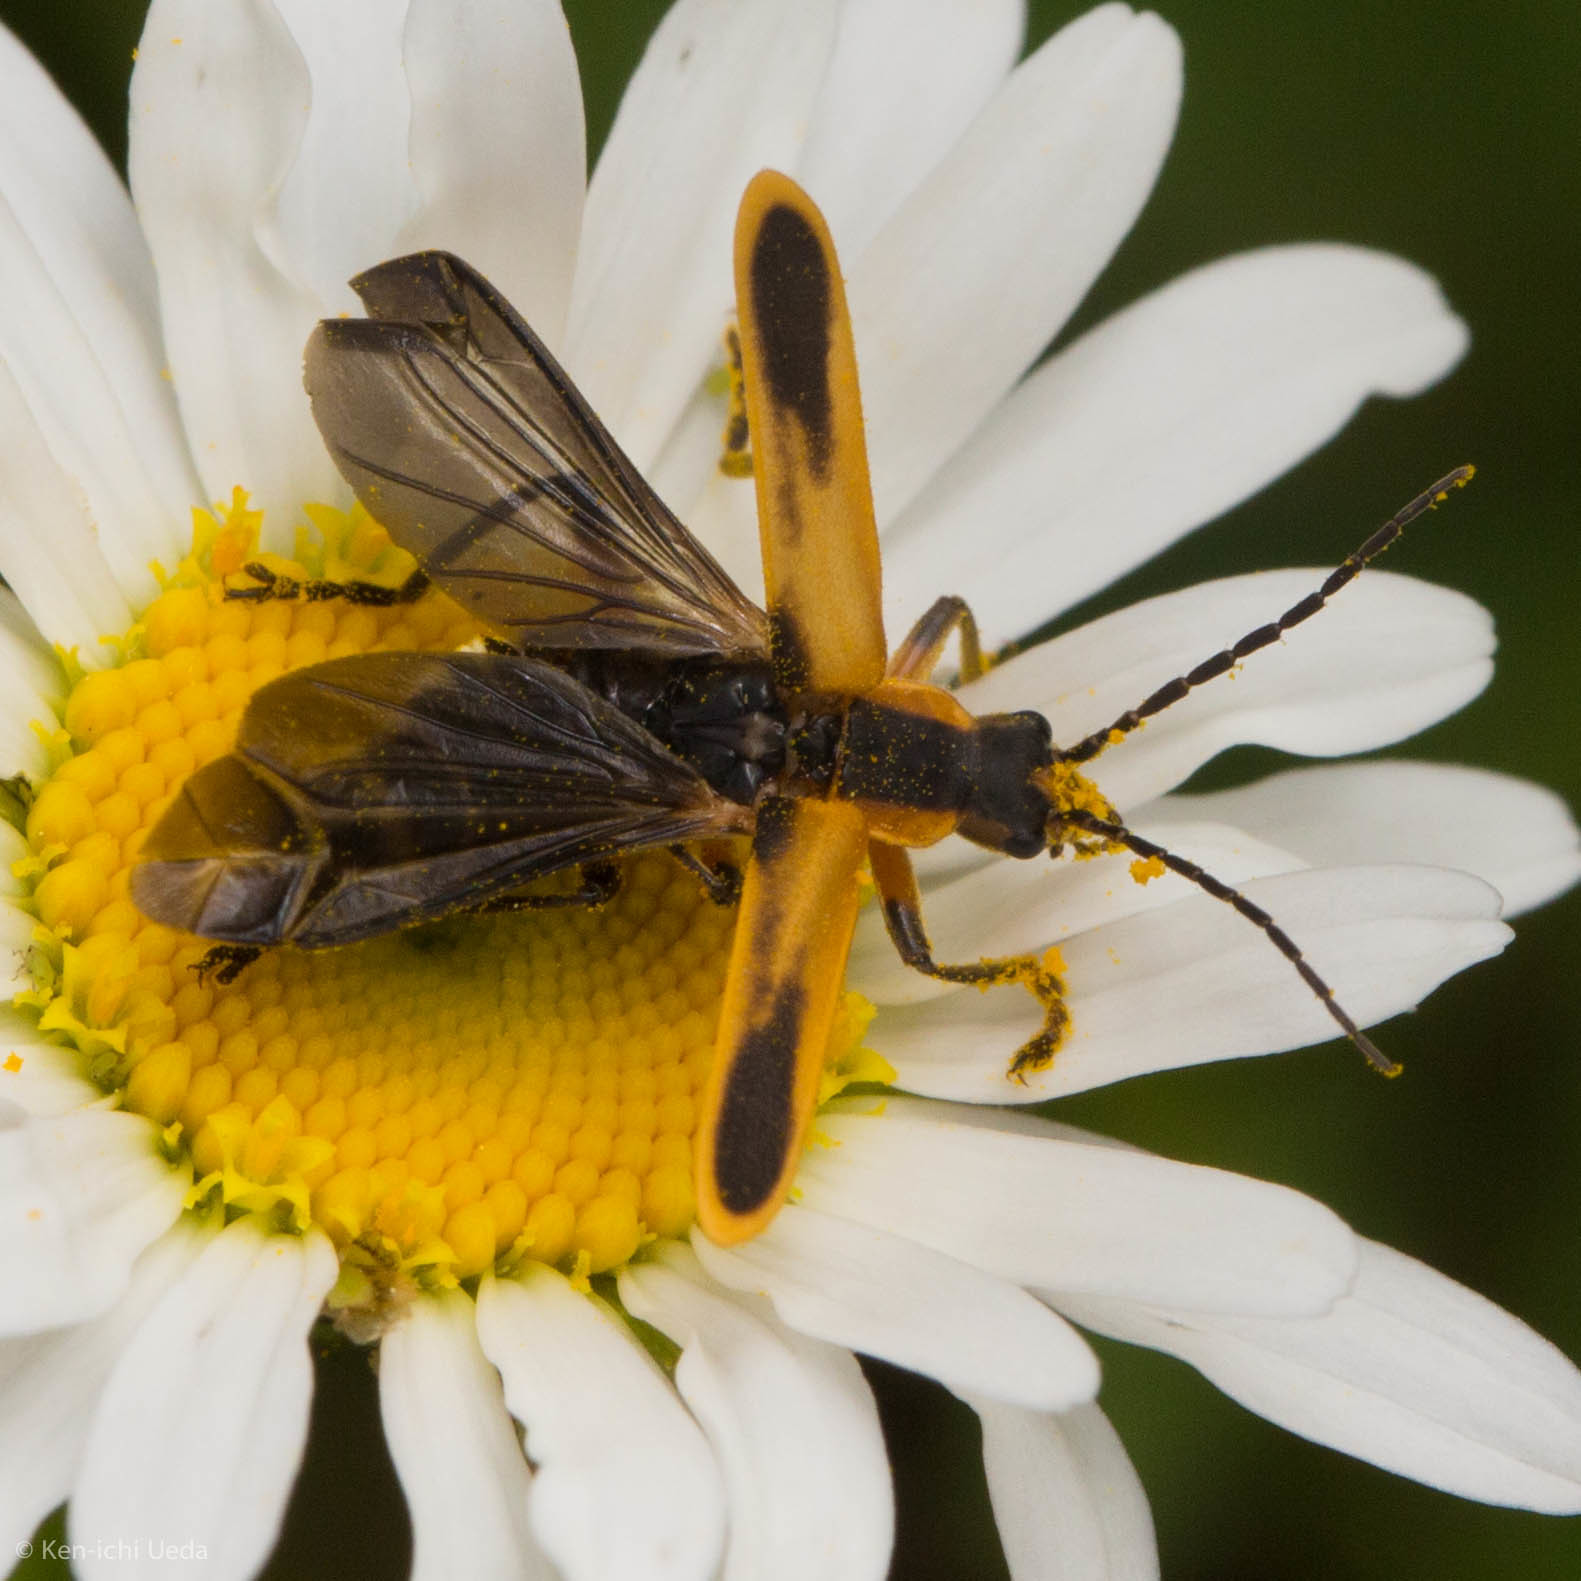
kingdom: Animalia
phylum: Arthropoda
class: Insecta
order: Coleoptera
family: Cantharidae
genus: Chauliognathus
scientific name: Chauliognathus marginatus
